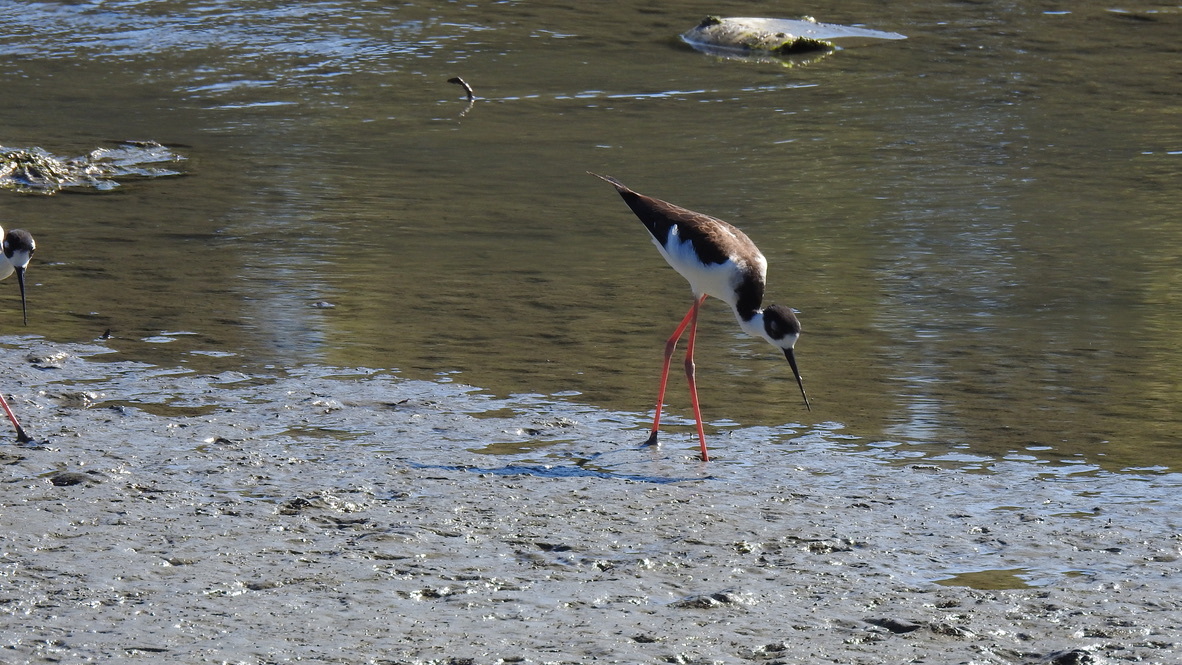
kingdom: Animalia
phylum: Chordata
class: Aves
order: Charadriiformes
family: Recurvirostridae
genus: Himantopus
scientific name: Himantopus mexicanus
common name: Black-necked stilt
